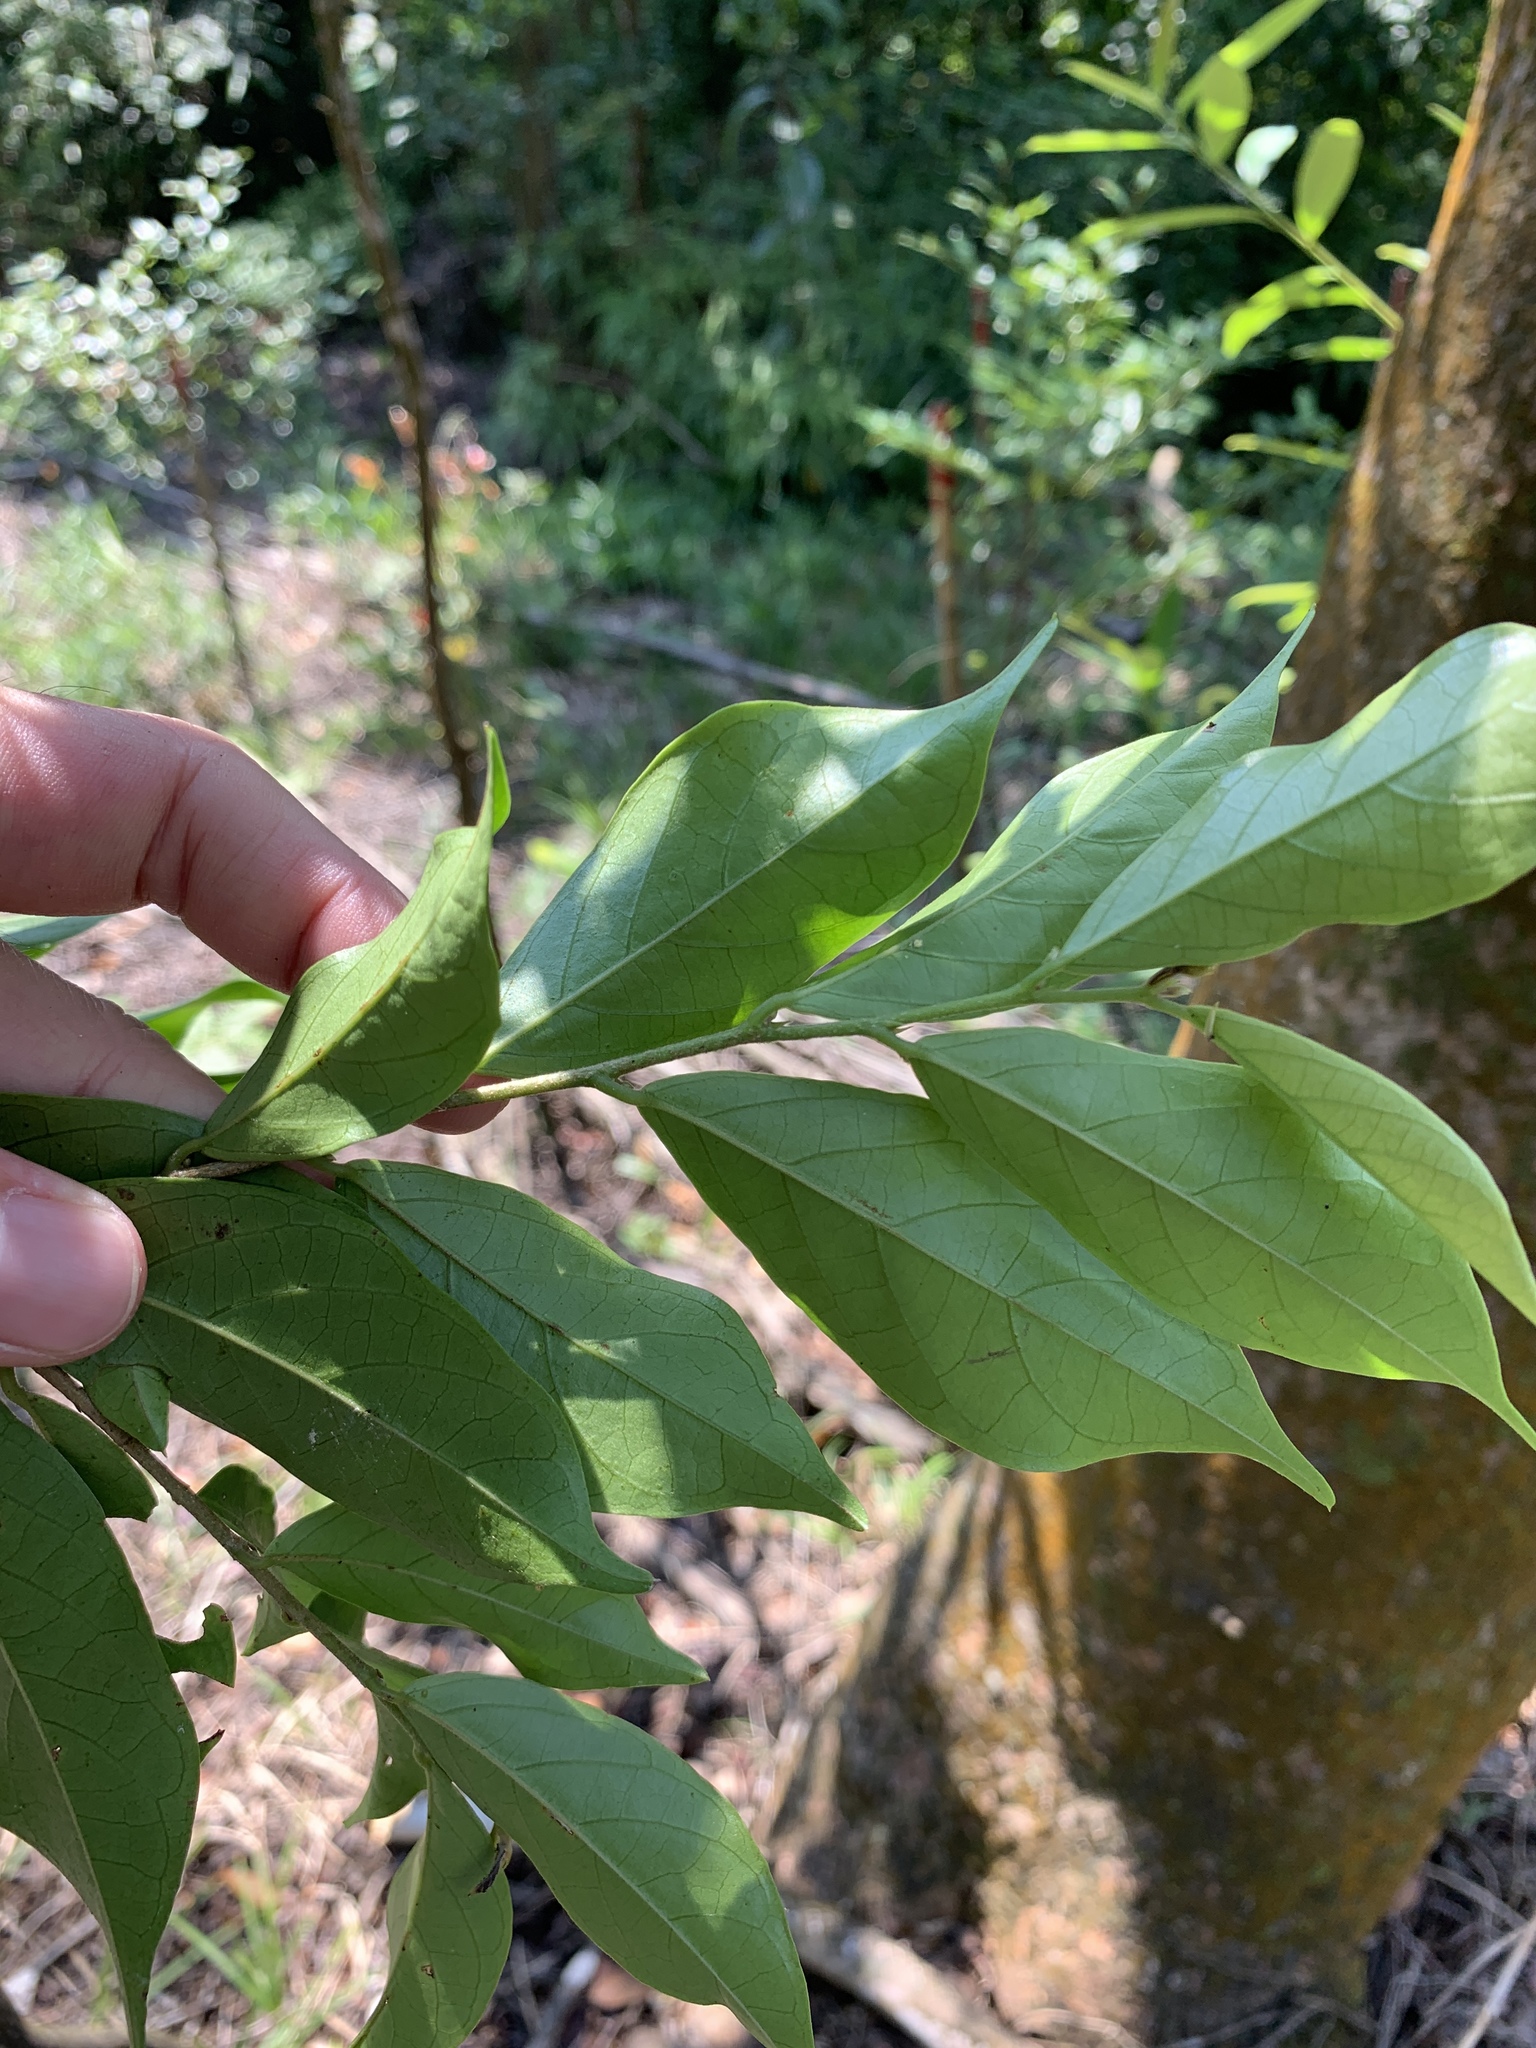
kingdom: Plantae
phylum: Tracheophyta
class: Magnoliopsida
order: Malpighiales
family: Phyllanthaceae
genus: Antidesma
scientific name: Antidesma japonicum
